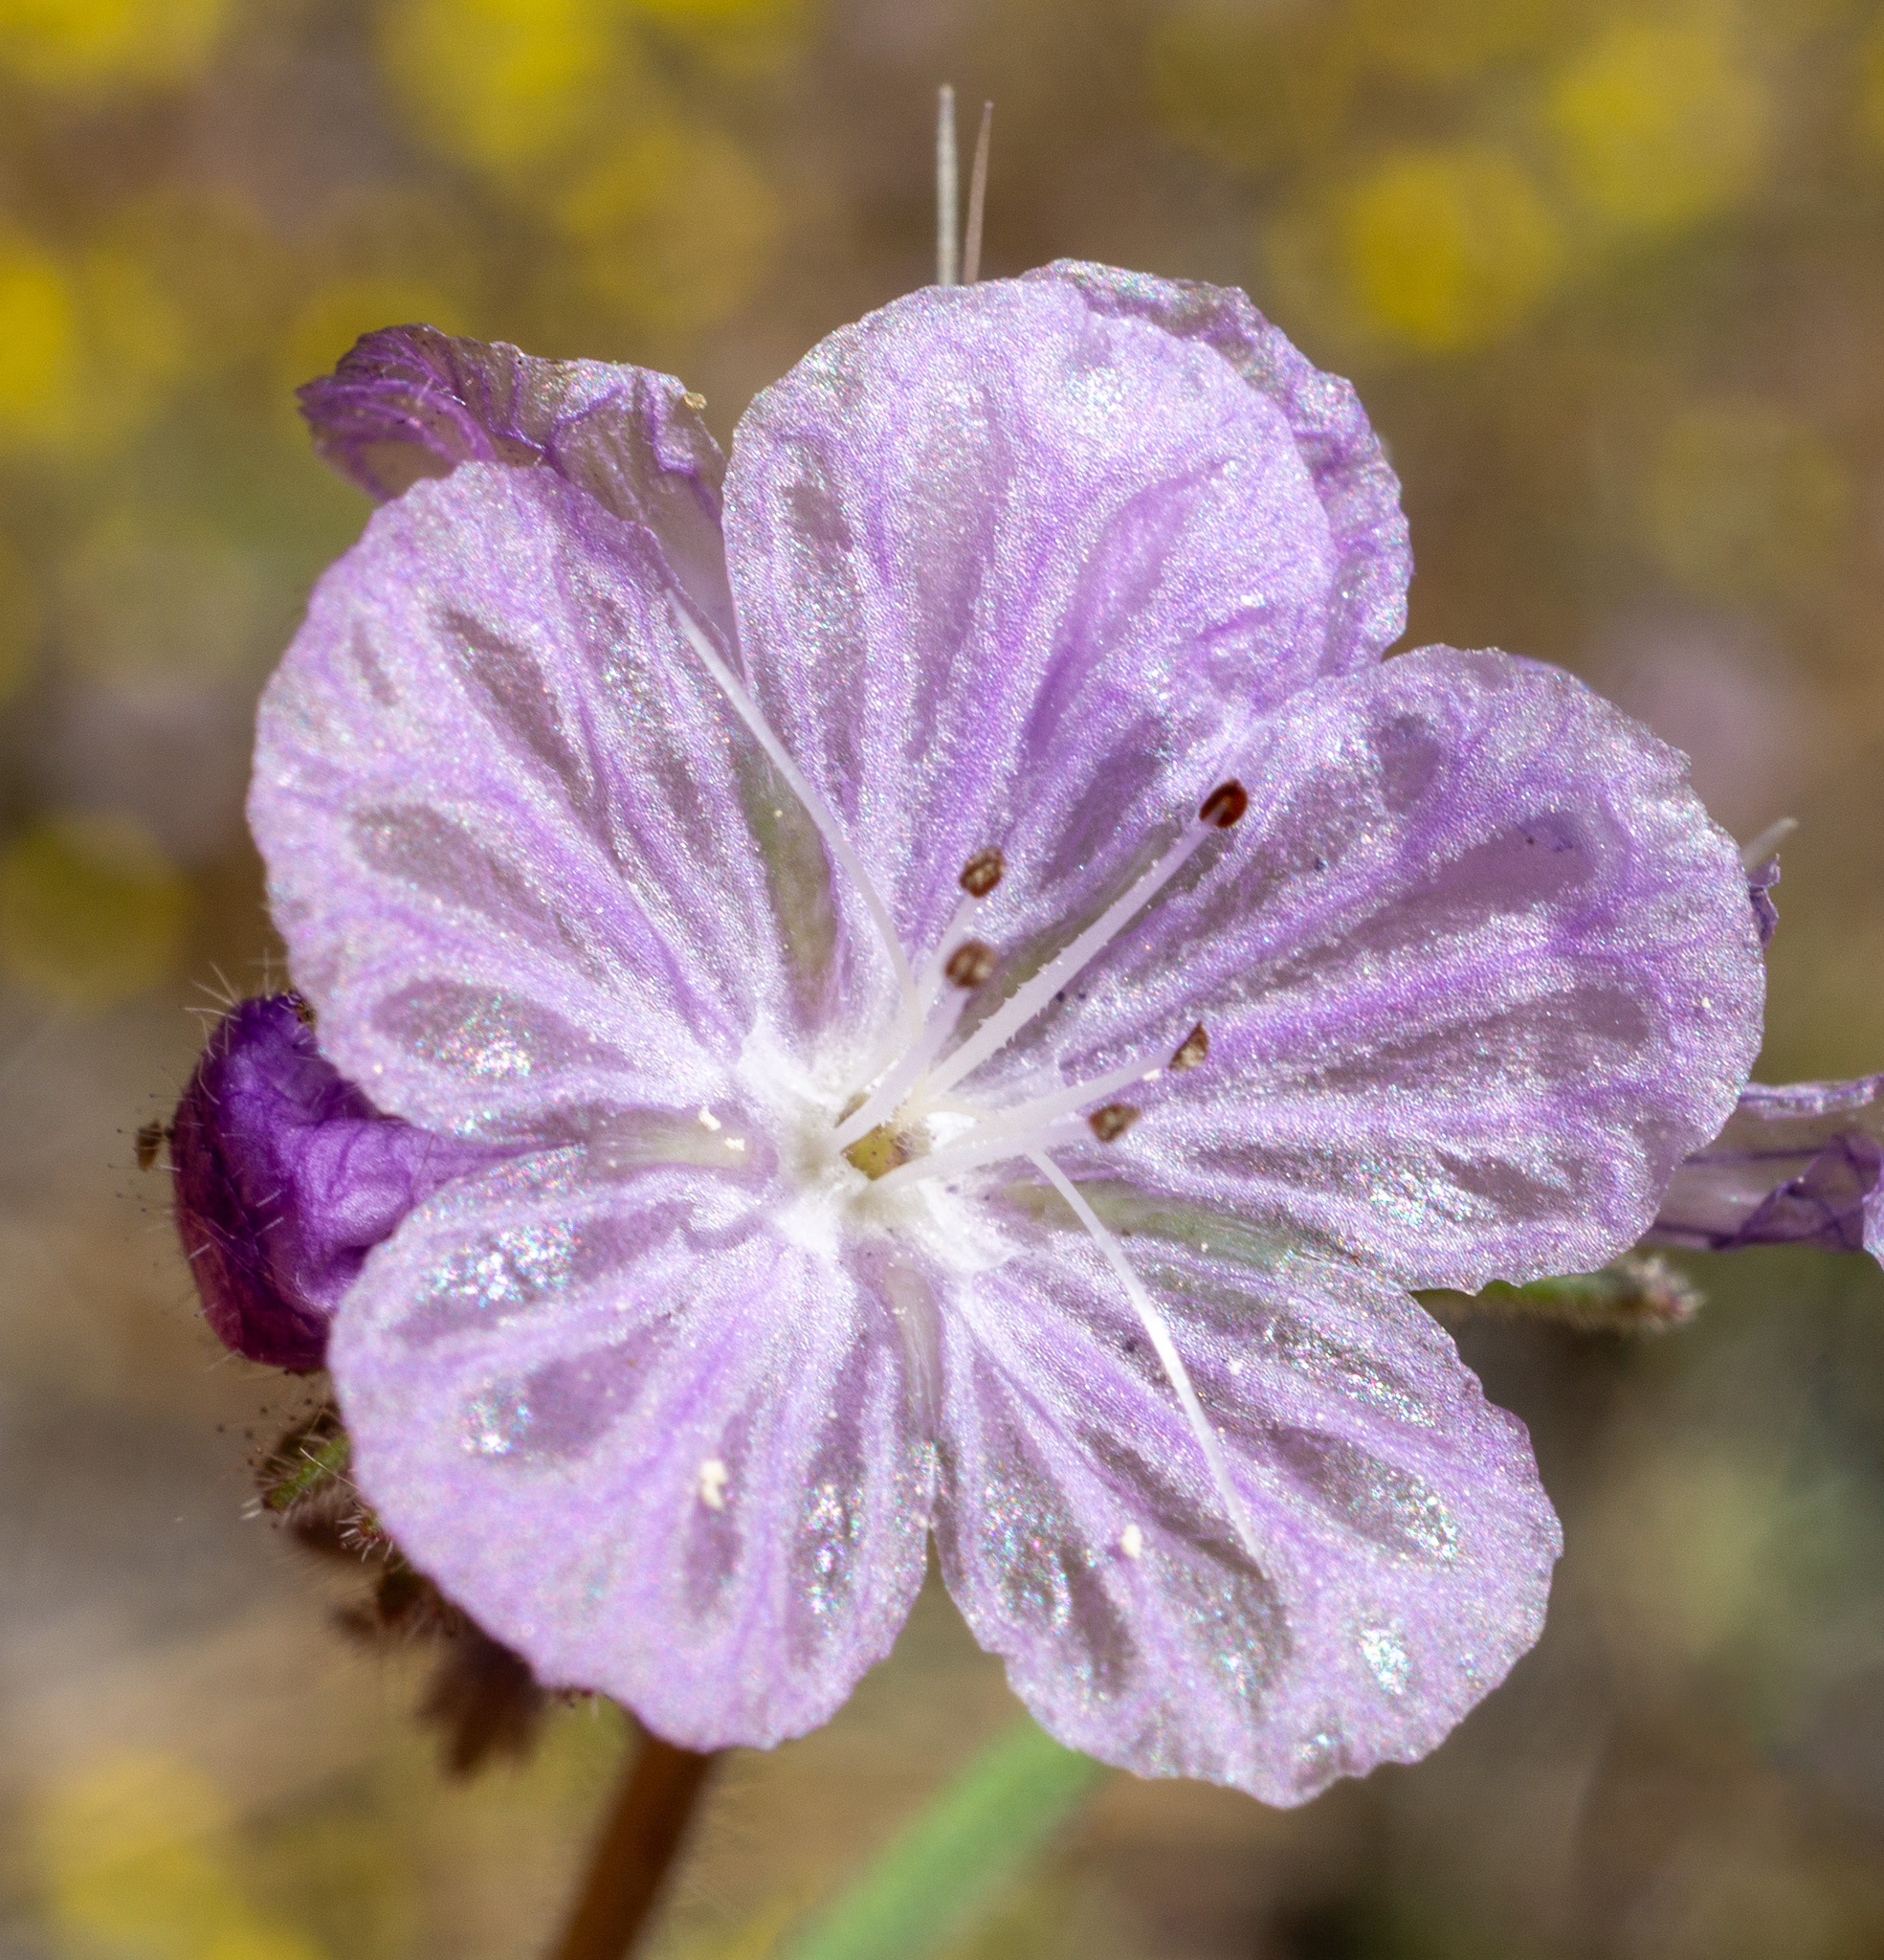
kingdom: Plantae
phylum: Tracheophyta
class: Magnoliopsida
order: Boraginales
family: Hydrophyllaceae
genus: Phacelia
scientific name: Phacelia exilis
